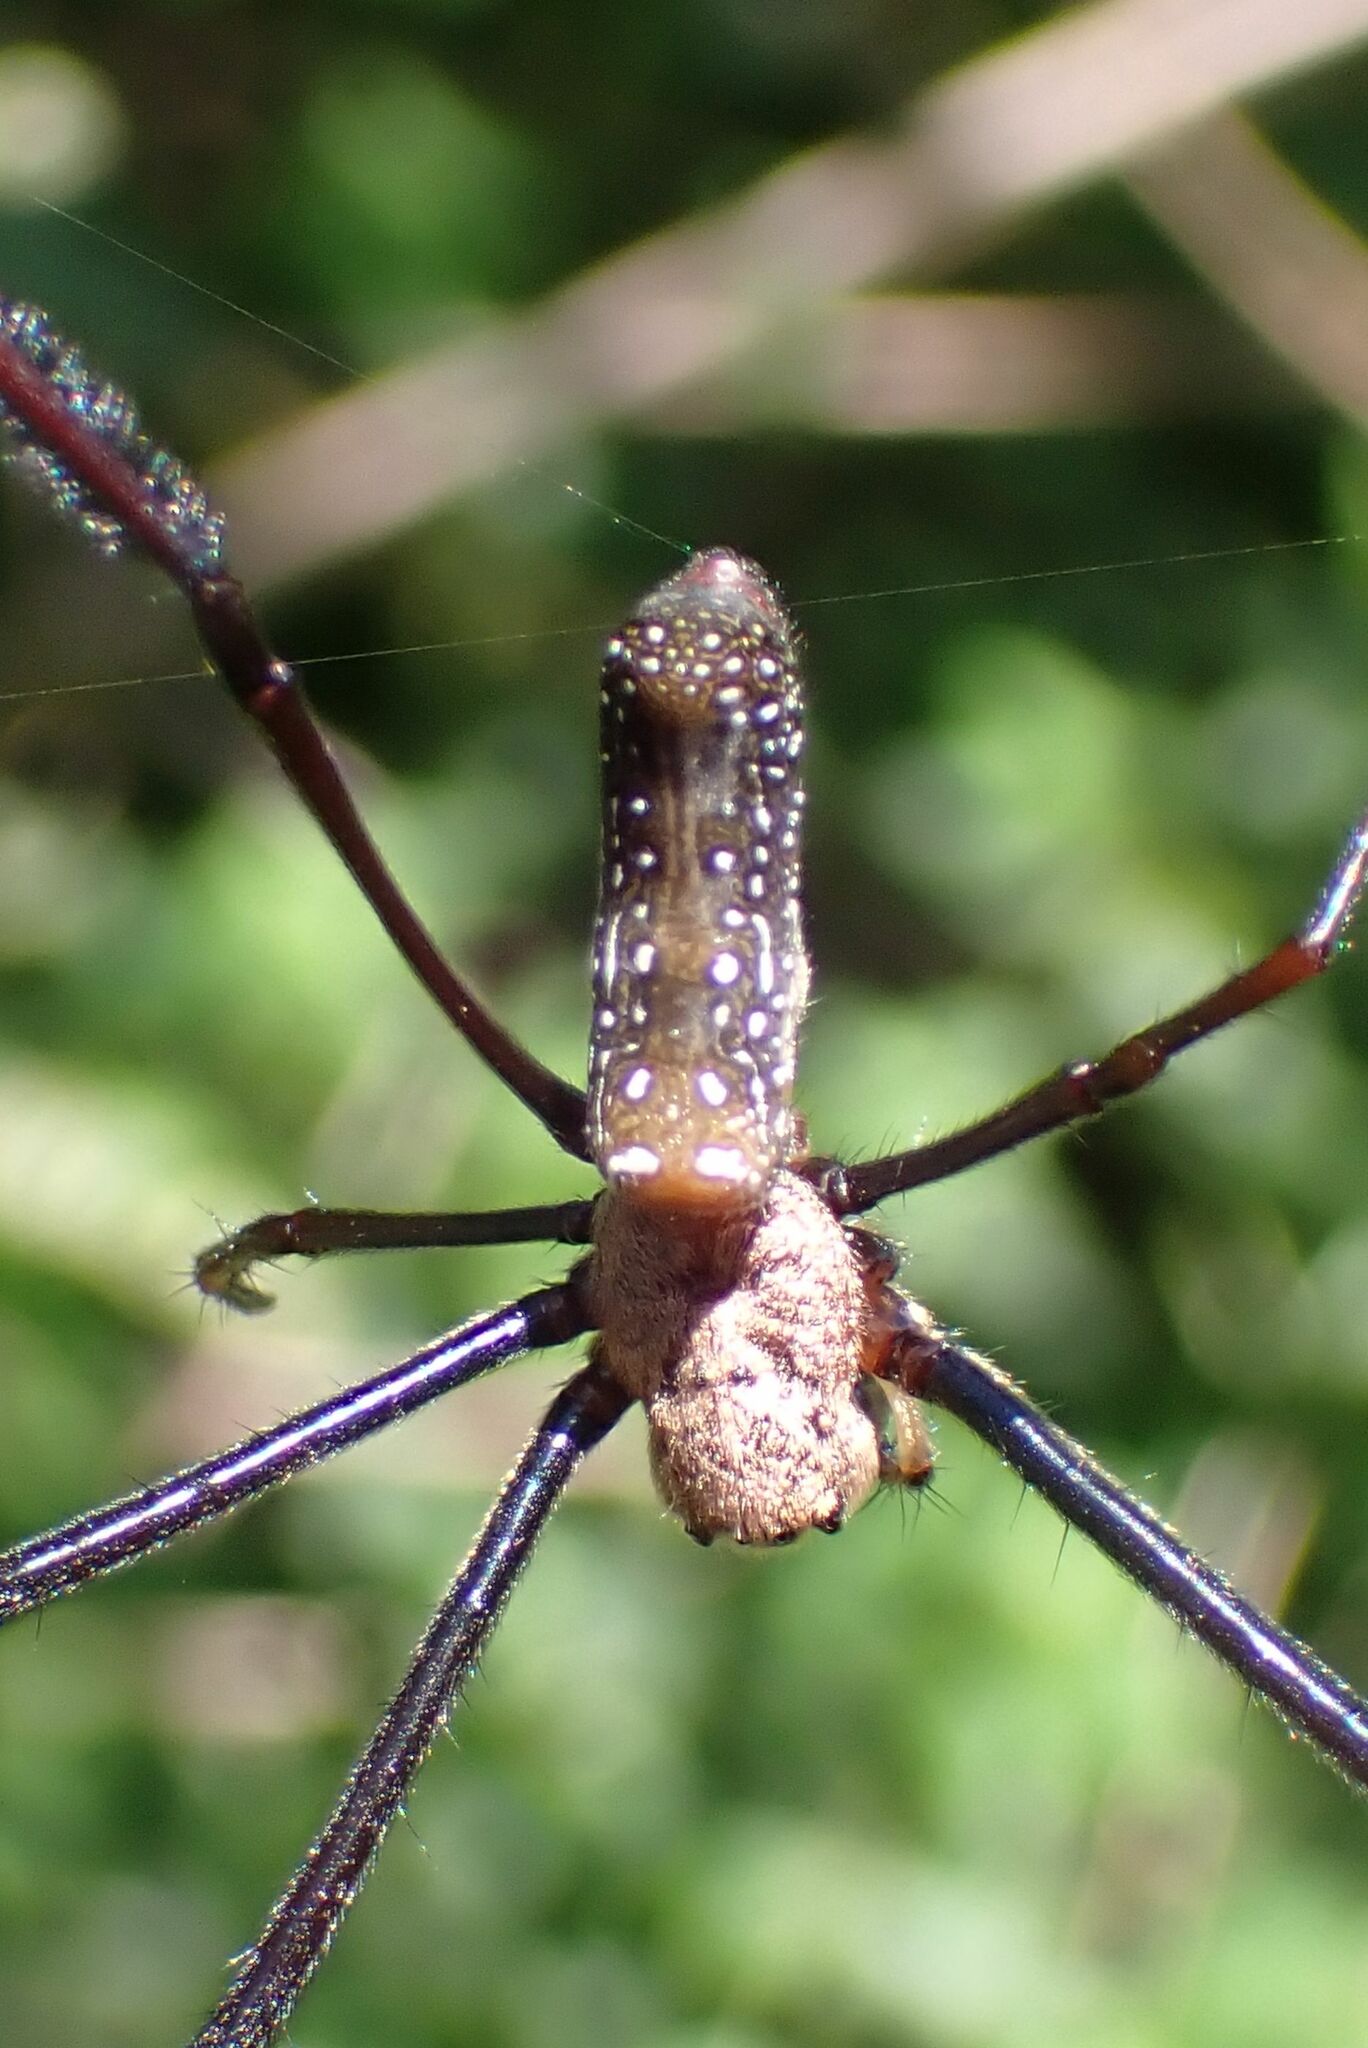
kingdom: Animalia
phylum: Arthropoda
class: Arachnida
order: Araneae
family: Araneidae
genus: Trichonephila
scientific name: Trichonephila fenestrata
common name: Hairy golden orb weaver
